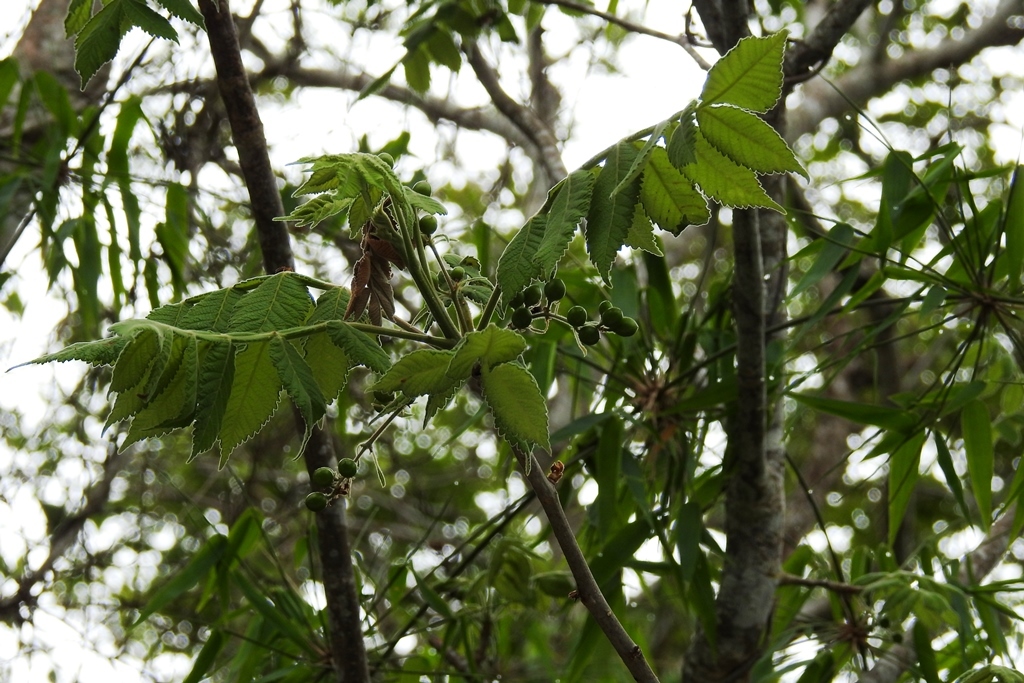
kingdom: Plantae
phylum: Tracheophyta
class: Magnoliopsida
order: Sapindales
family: Burseraceae
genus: Bursera
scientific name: Bursera excelsa
